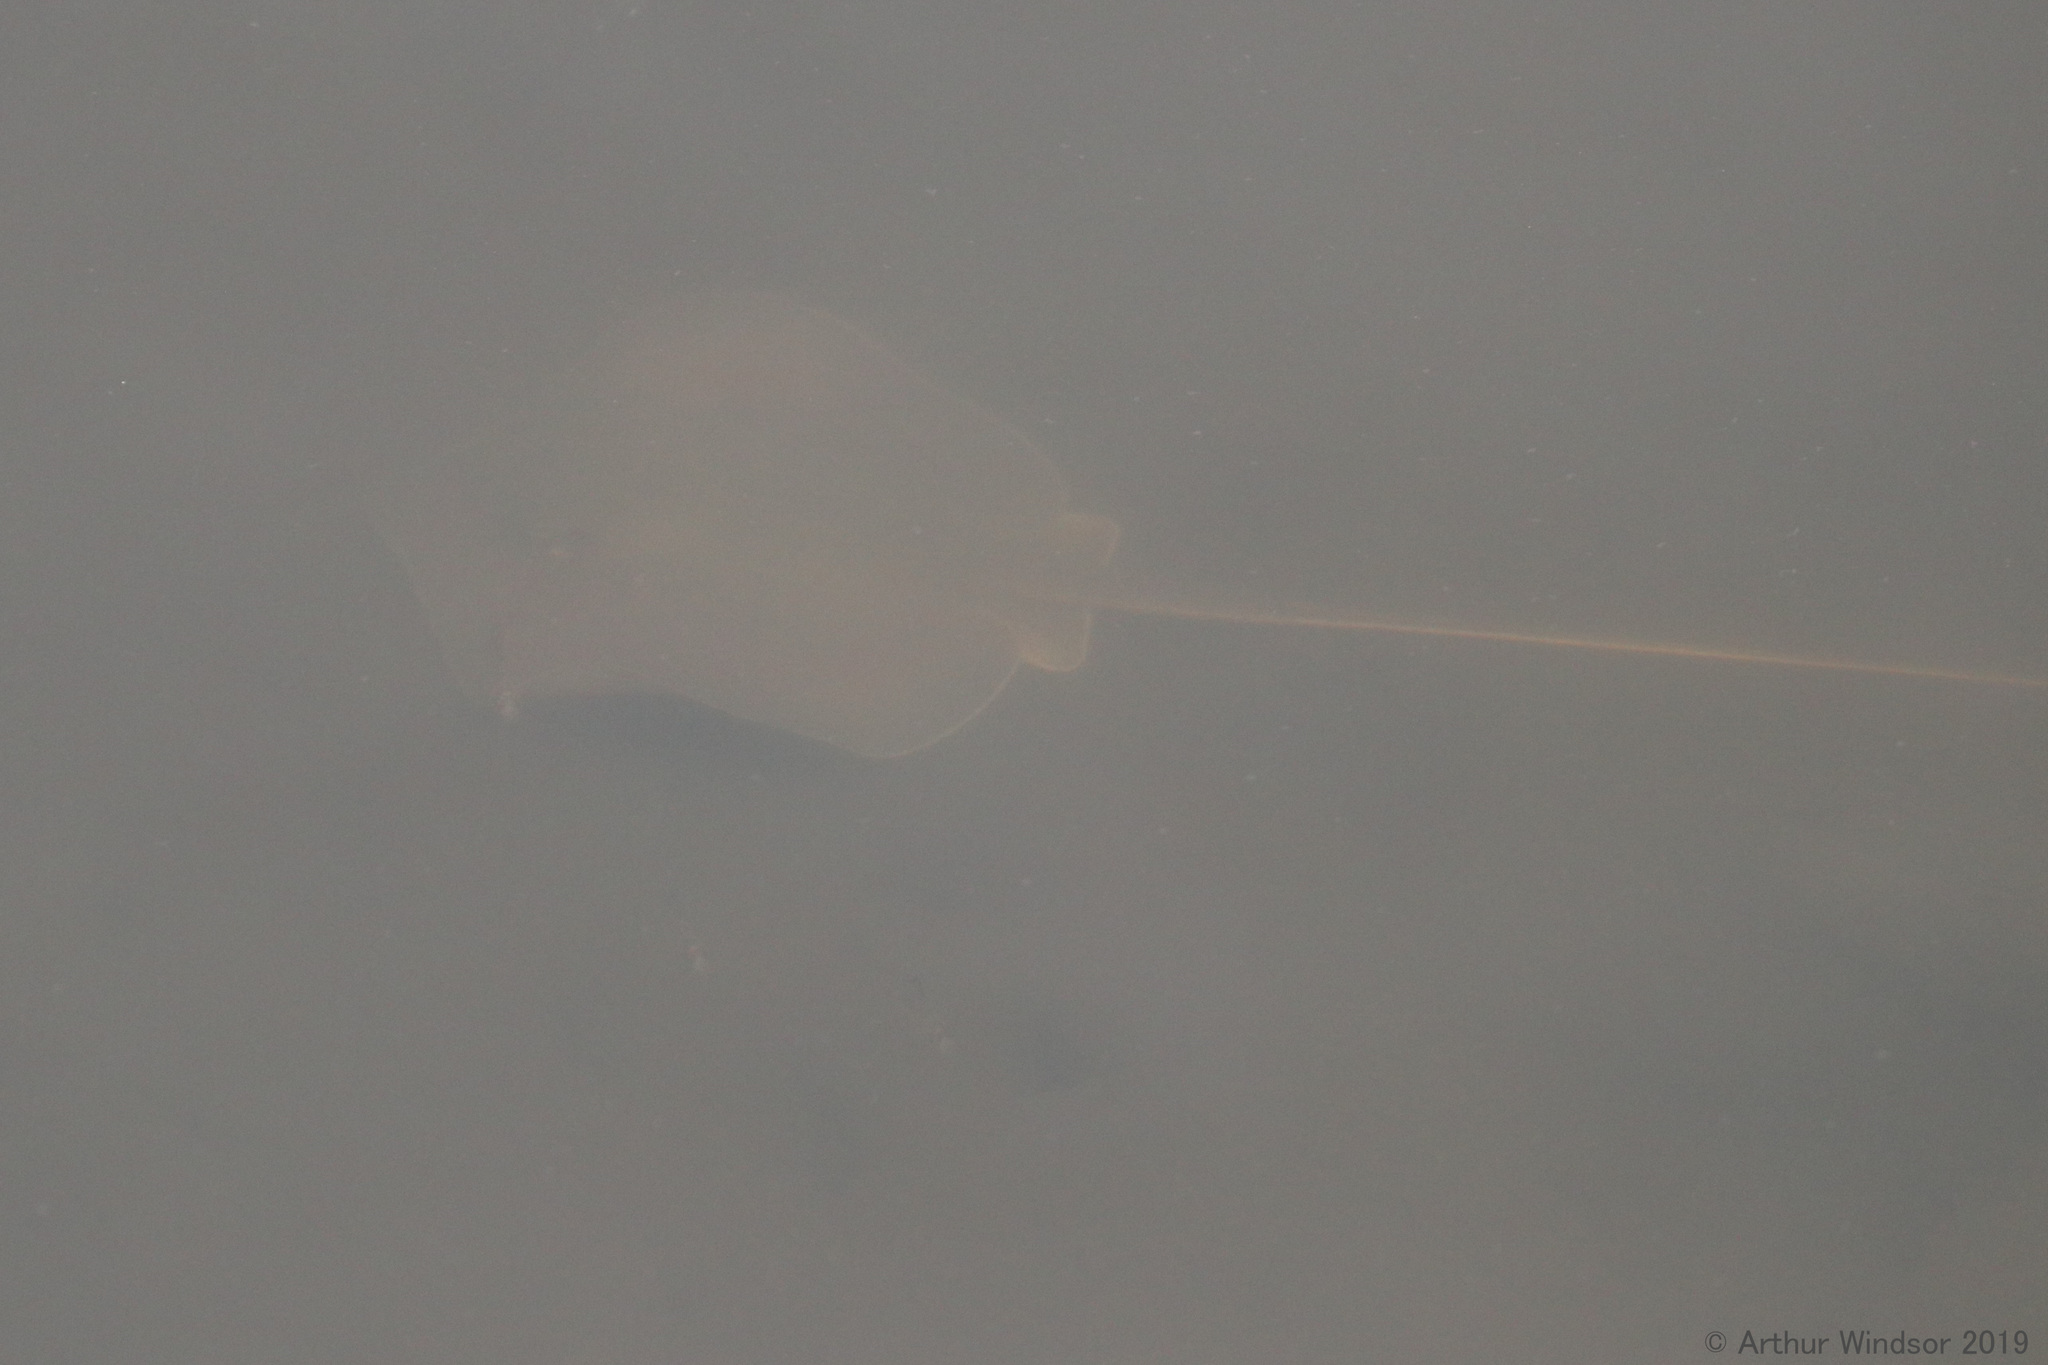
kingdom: Animalia
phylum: Chordata
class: Elasmobranchii
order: Myliobatiformes
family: Dasyatidae
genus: Hypanus
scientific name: Hypanus sabinus
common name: Atlantic stingray
